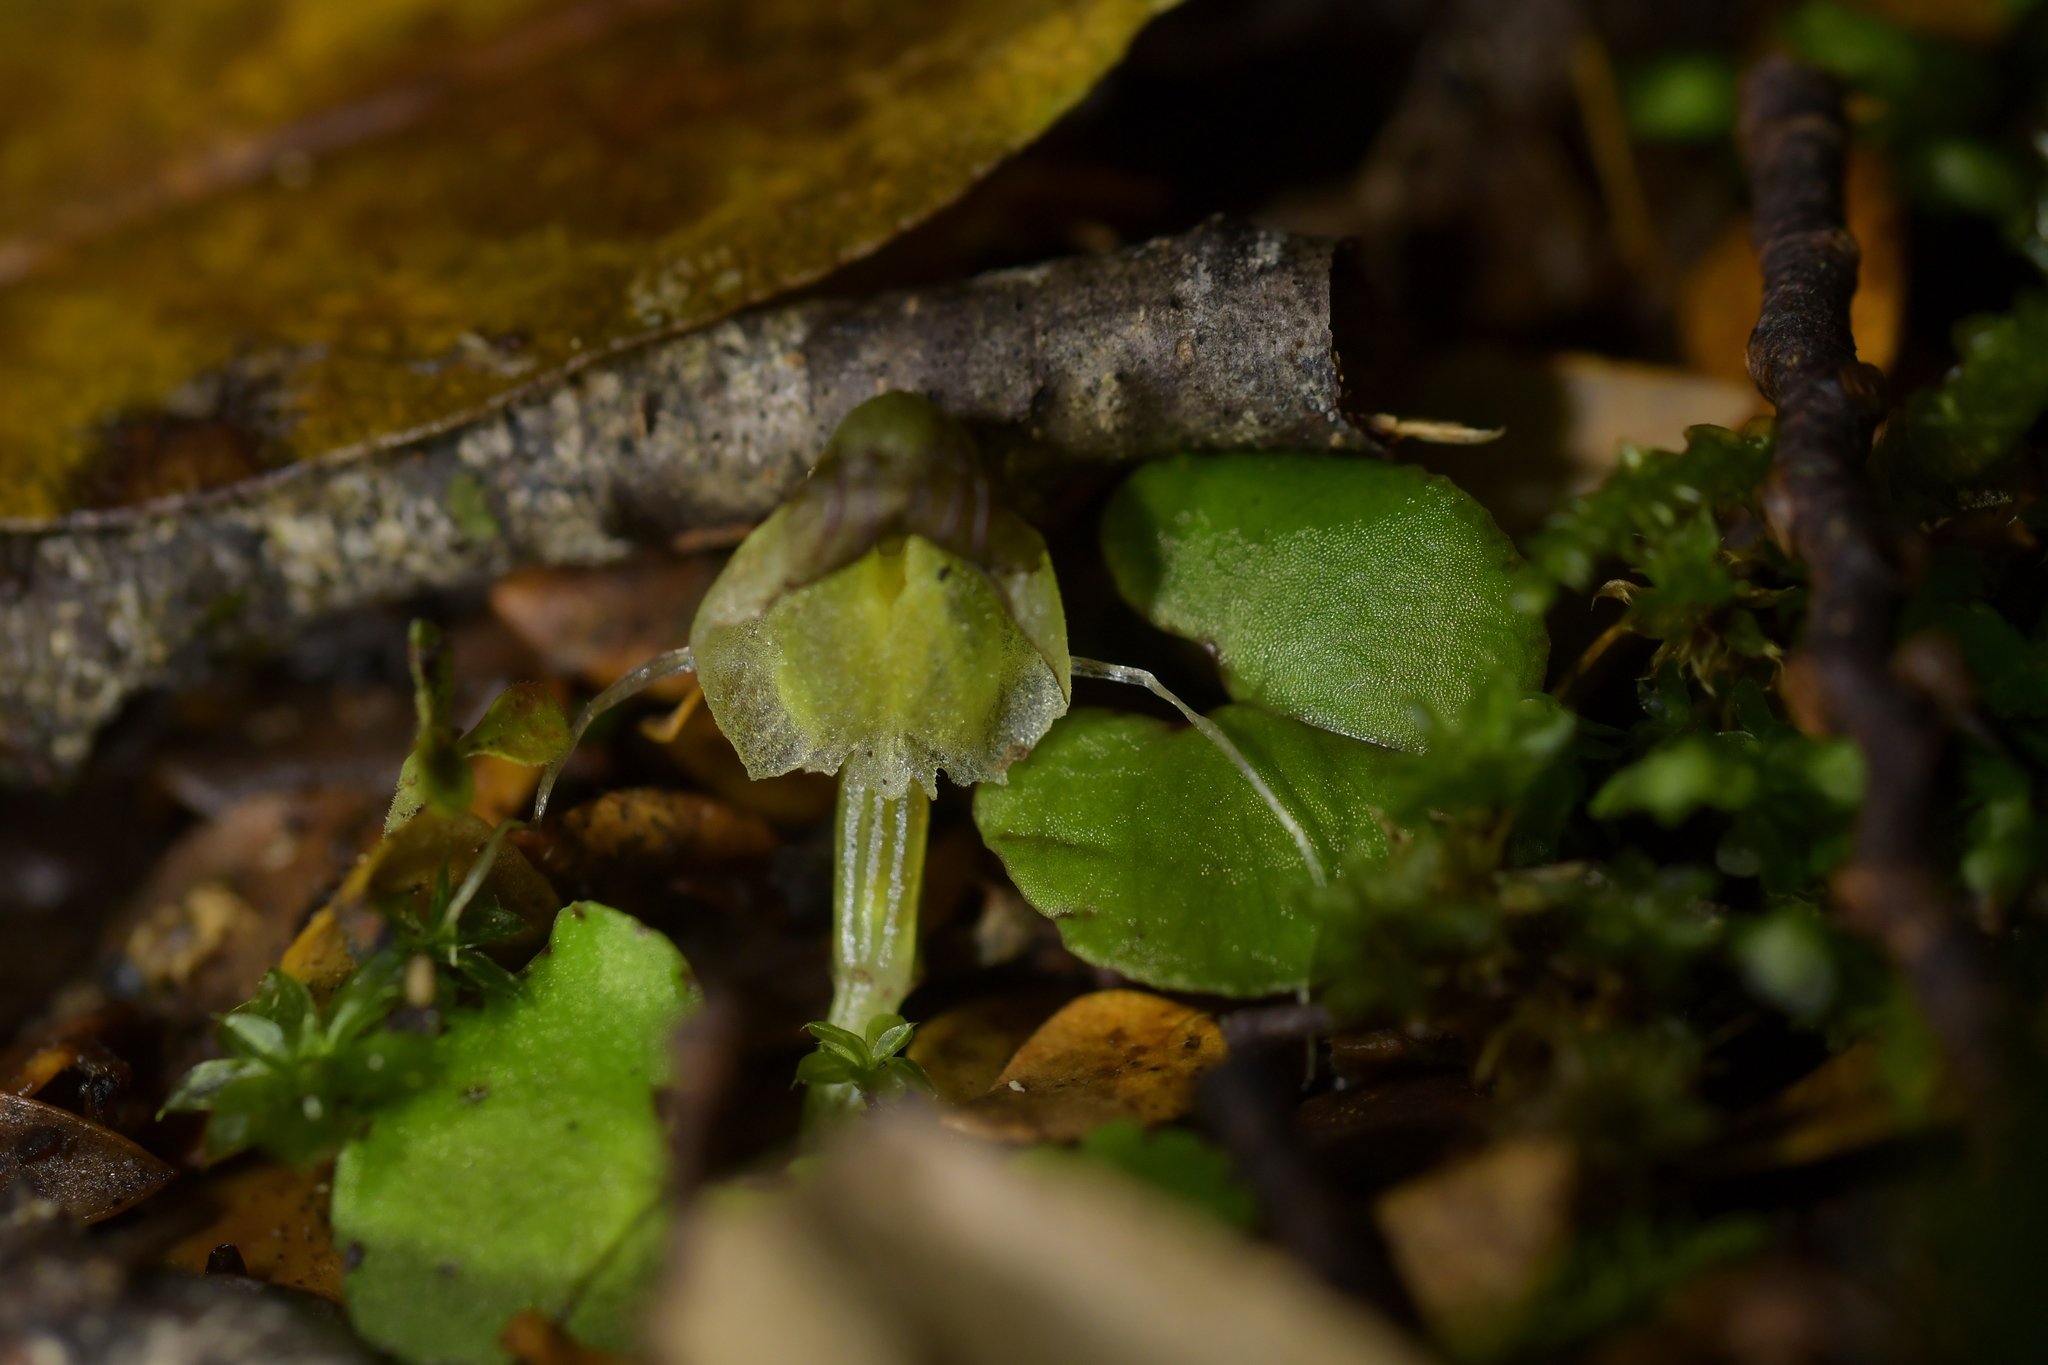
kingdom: Plantae
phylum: Tracheophyta
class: Liliopsida
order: Asparagales
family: Orchidaceae
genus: Corybas
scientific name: Corybas walliae
